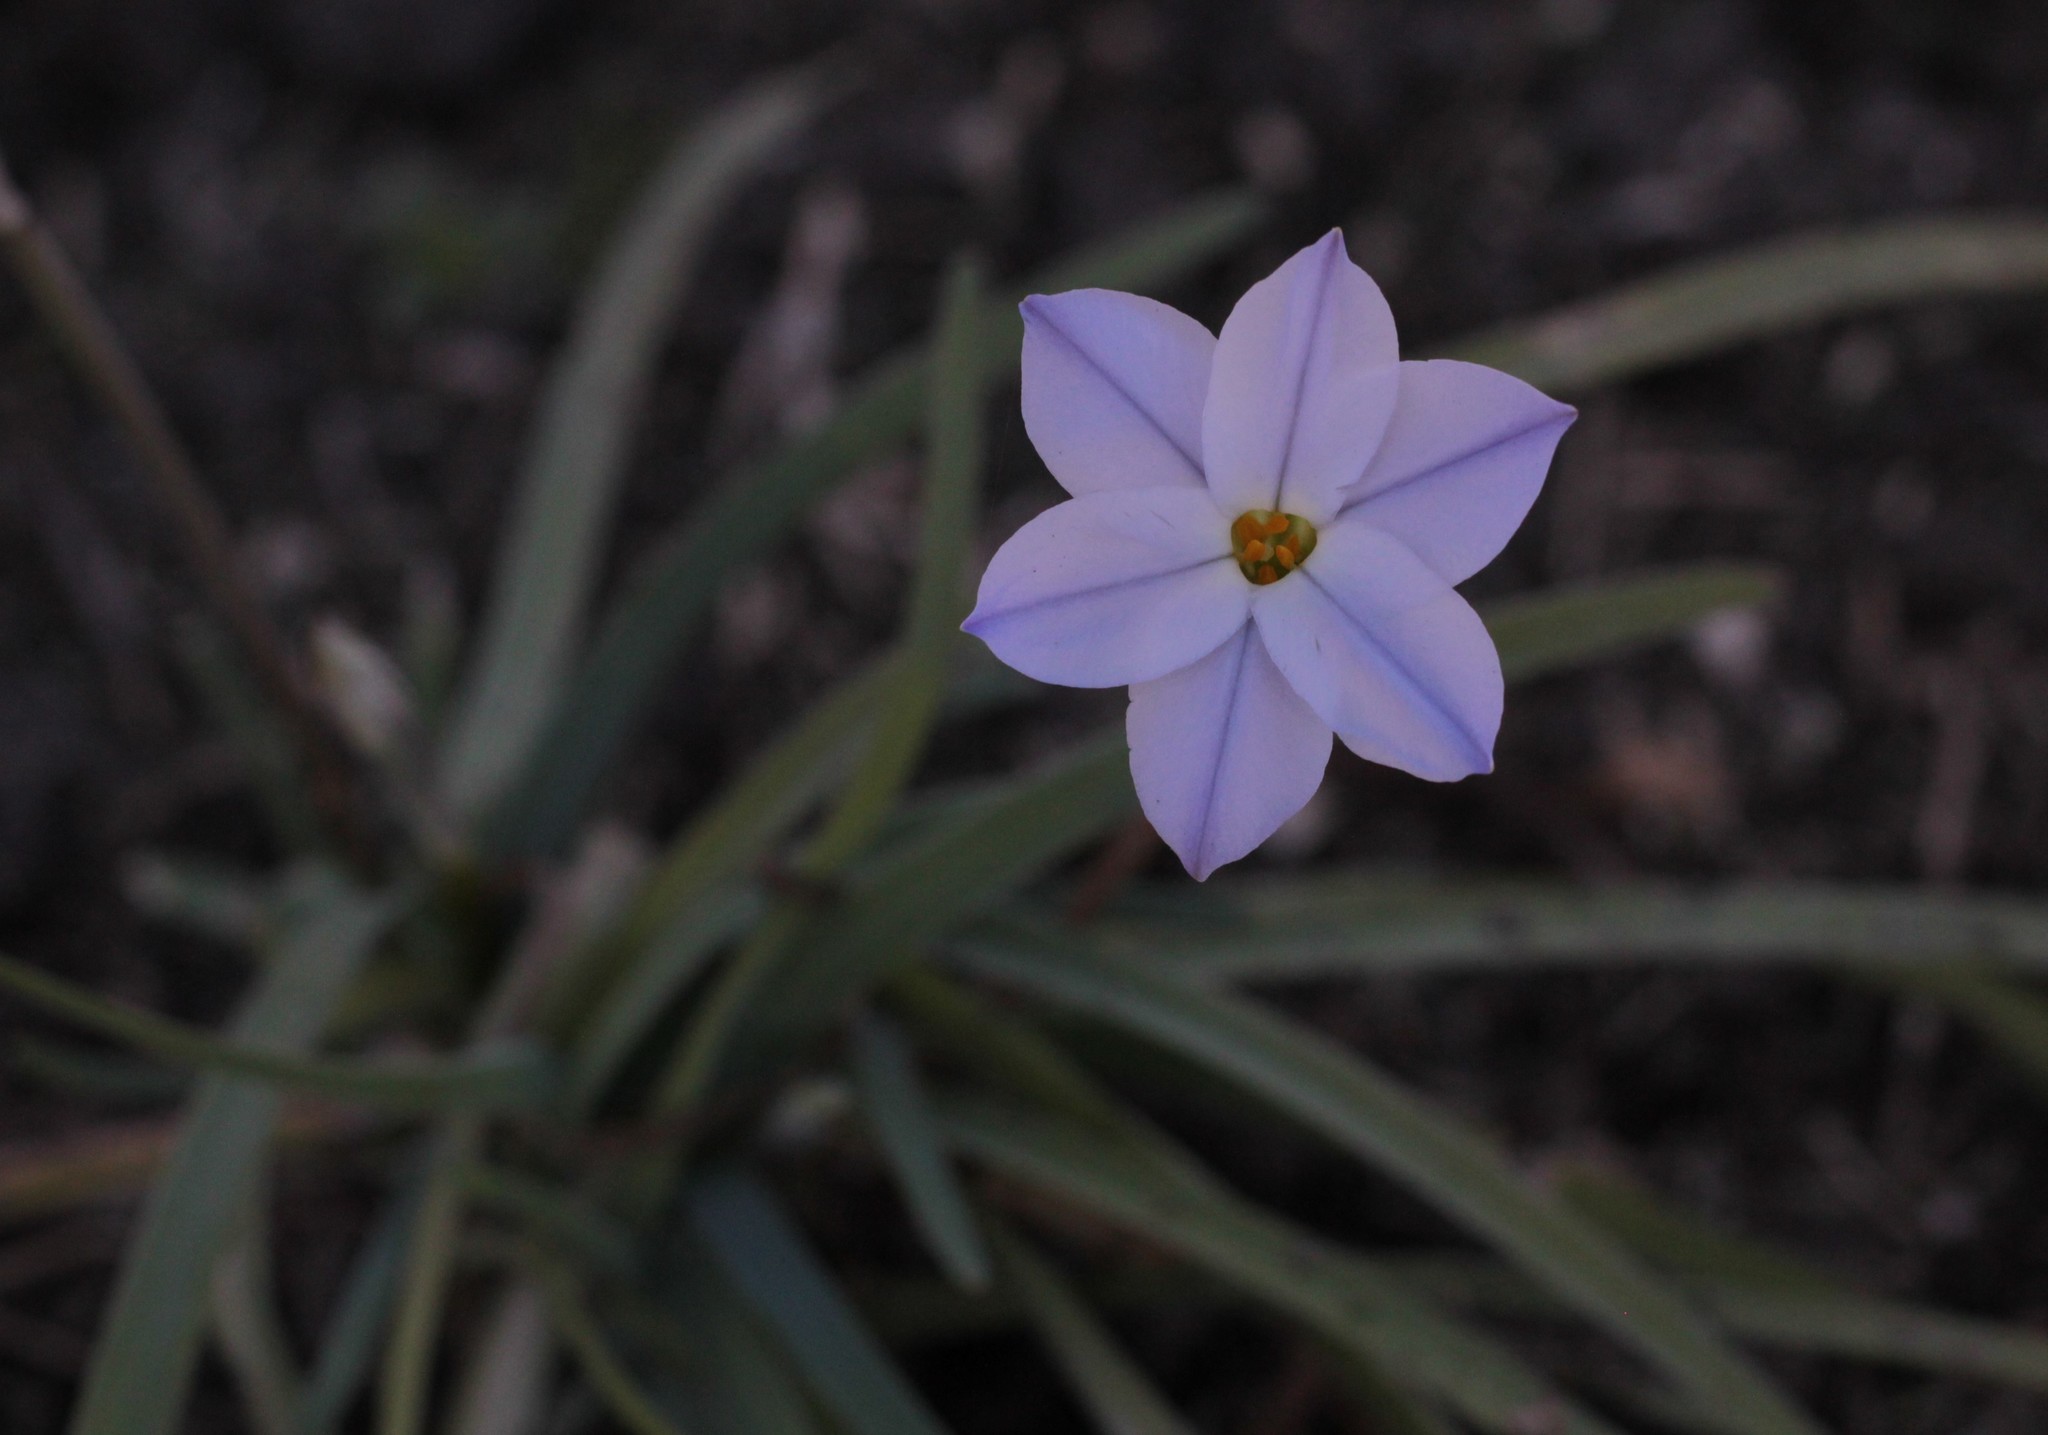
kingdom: Plantae
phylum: Tracheophyta
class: Liliopsida
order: Asparagales
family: Amaryllidaceae
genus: Ipheion
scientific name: Ipheion uniflorum
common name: Spring starflower
